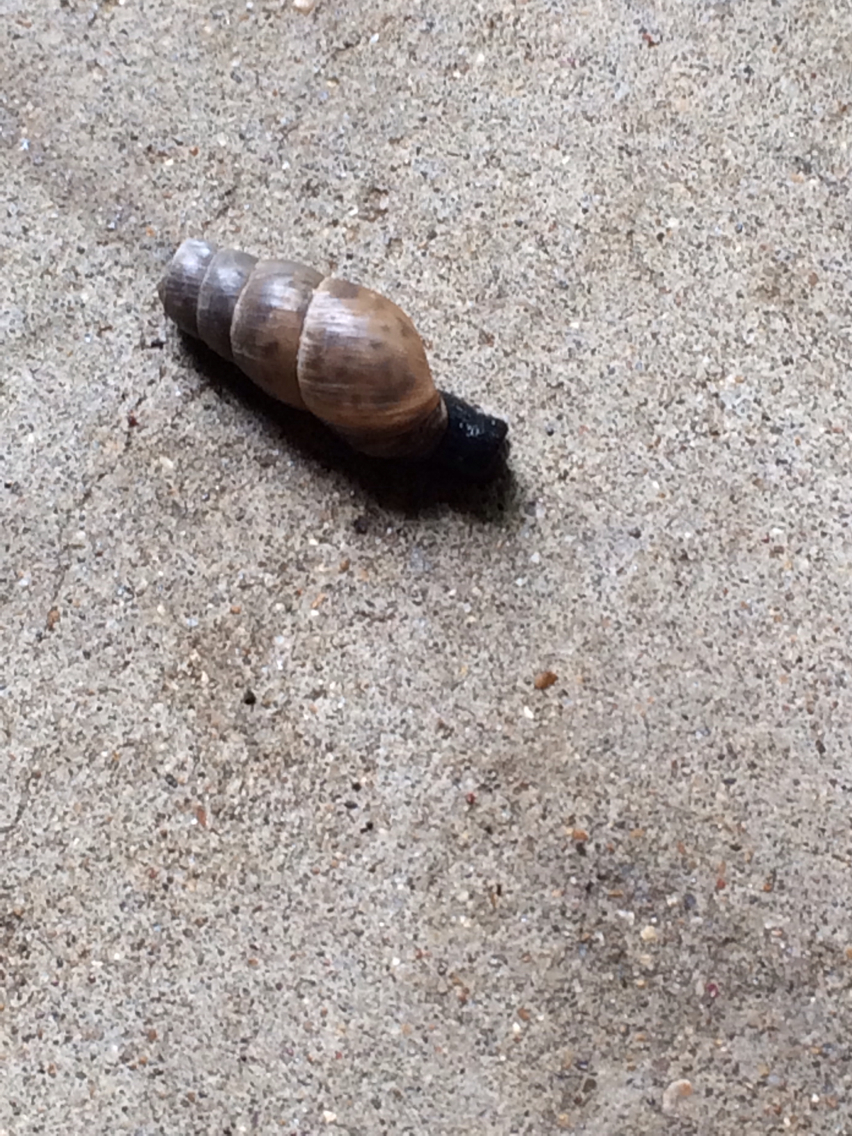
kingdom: Animalia
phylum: Mollusca
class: Gastropoda
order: Stylommatophora
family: Achatinidae
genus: Rumina
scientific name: Rumina decollata
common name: Decollate snail
